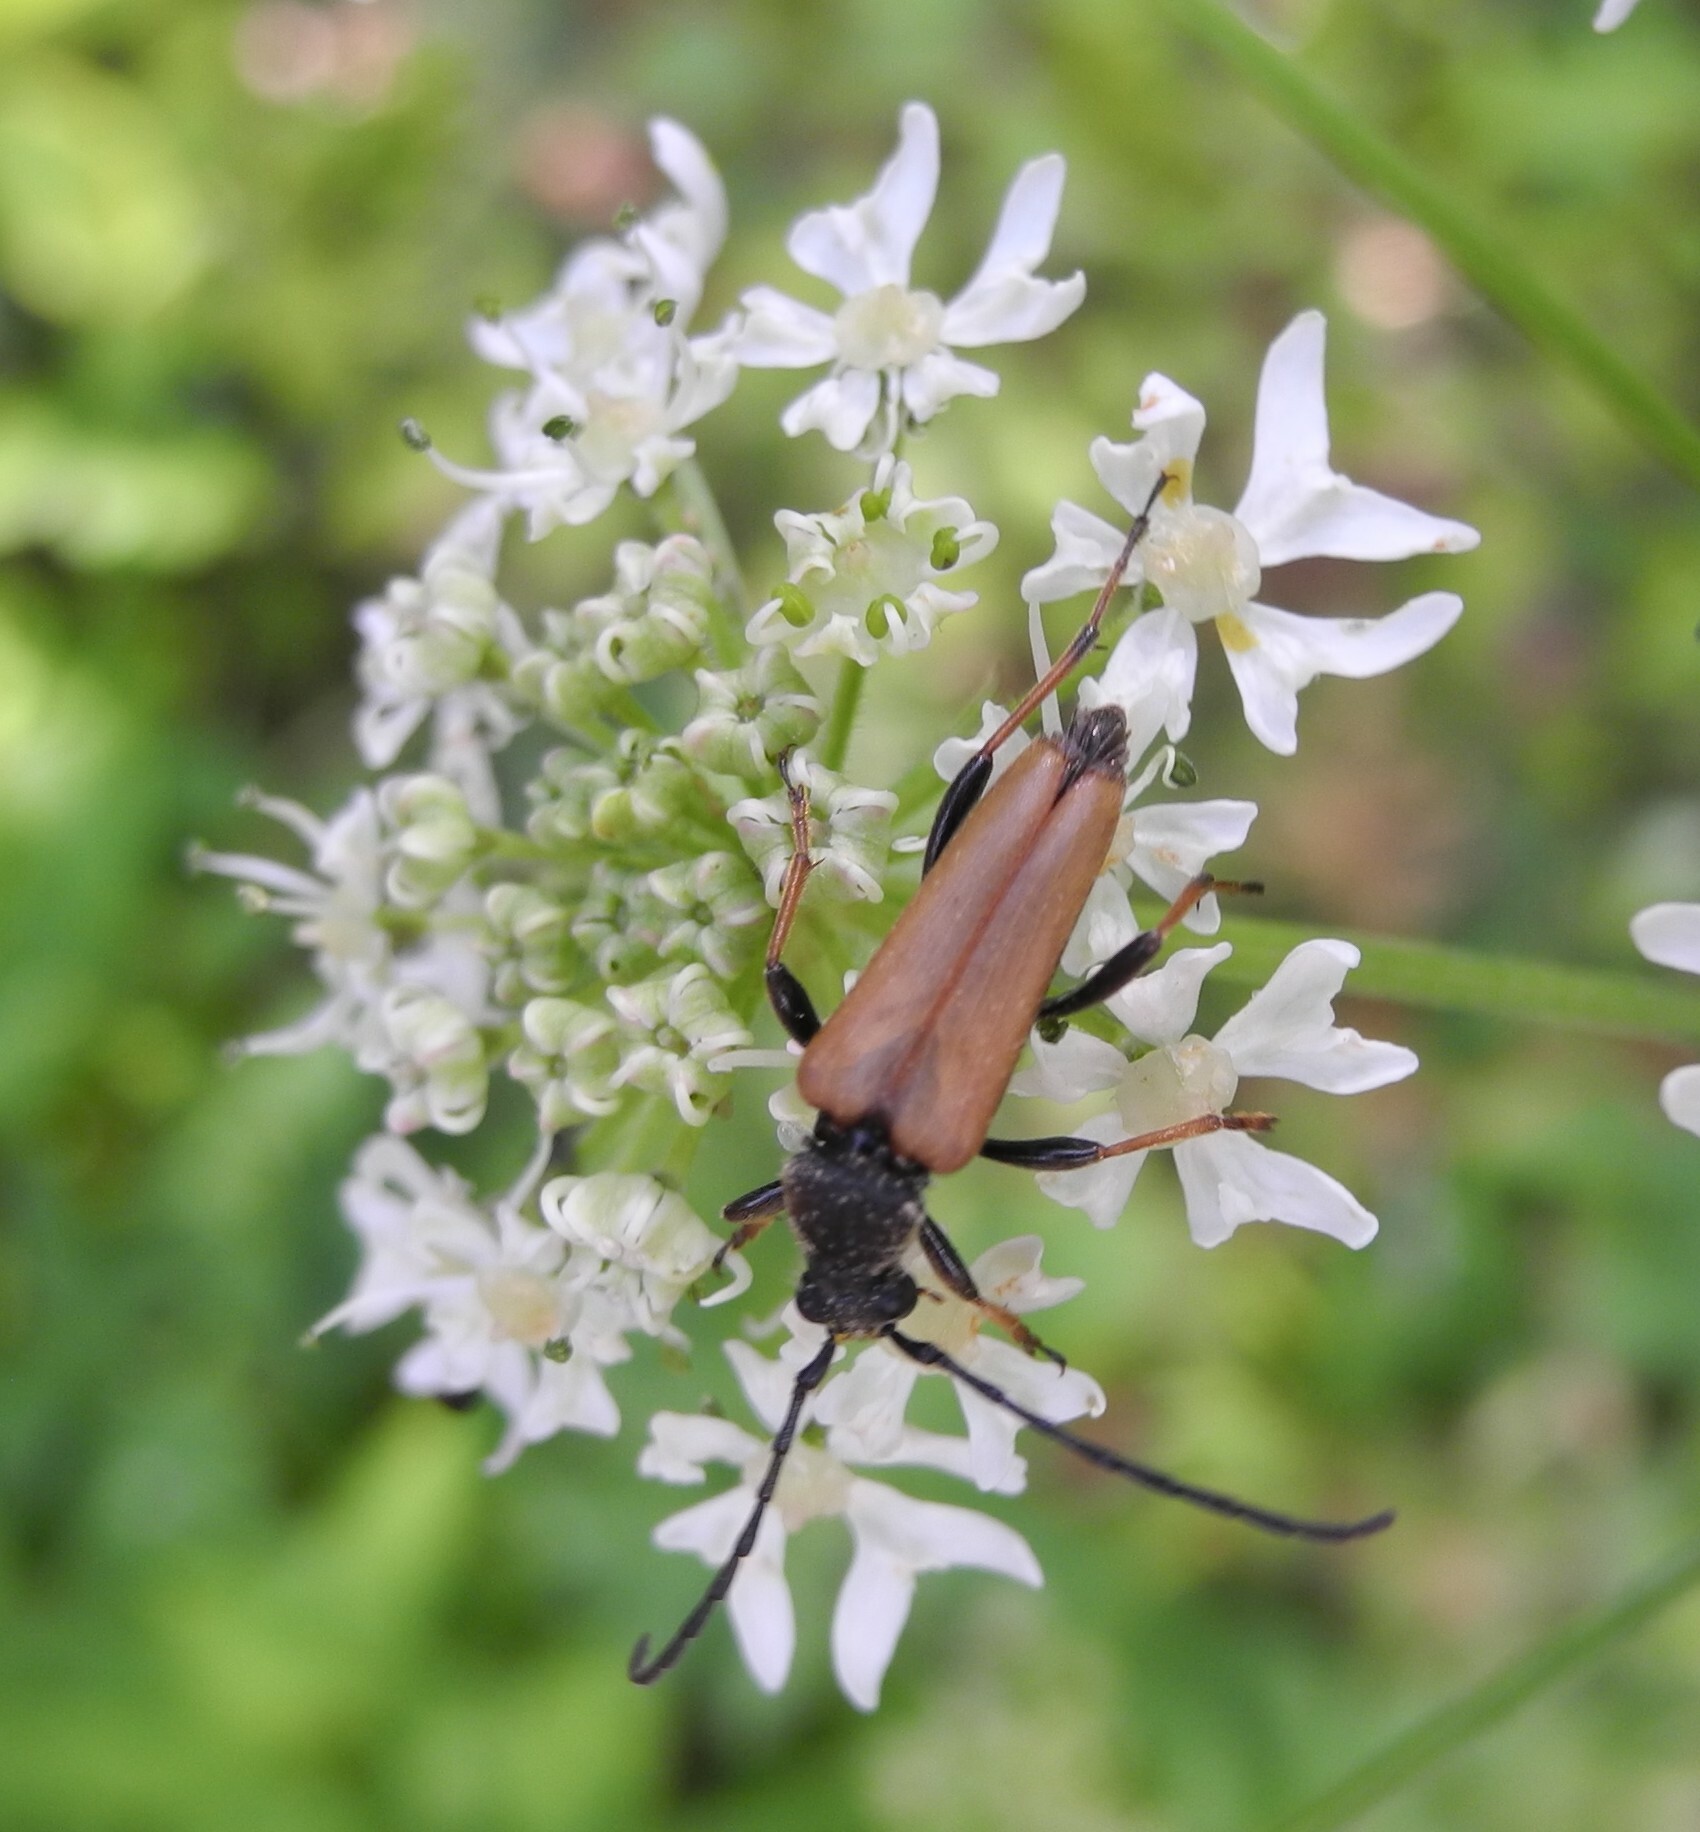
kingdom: Animalia
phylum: Arthropoda
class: Insecta
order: Coleoptera
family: Cerambycidae
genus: Stictoleptura
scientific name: Stictoleptura rubra
